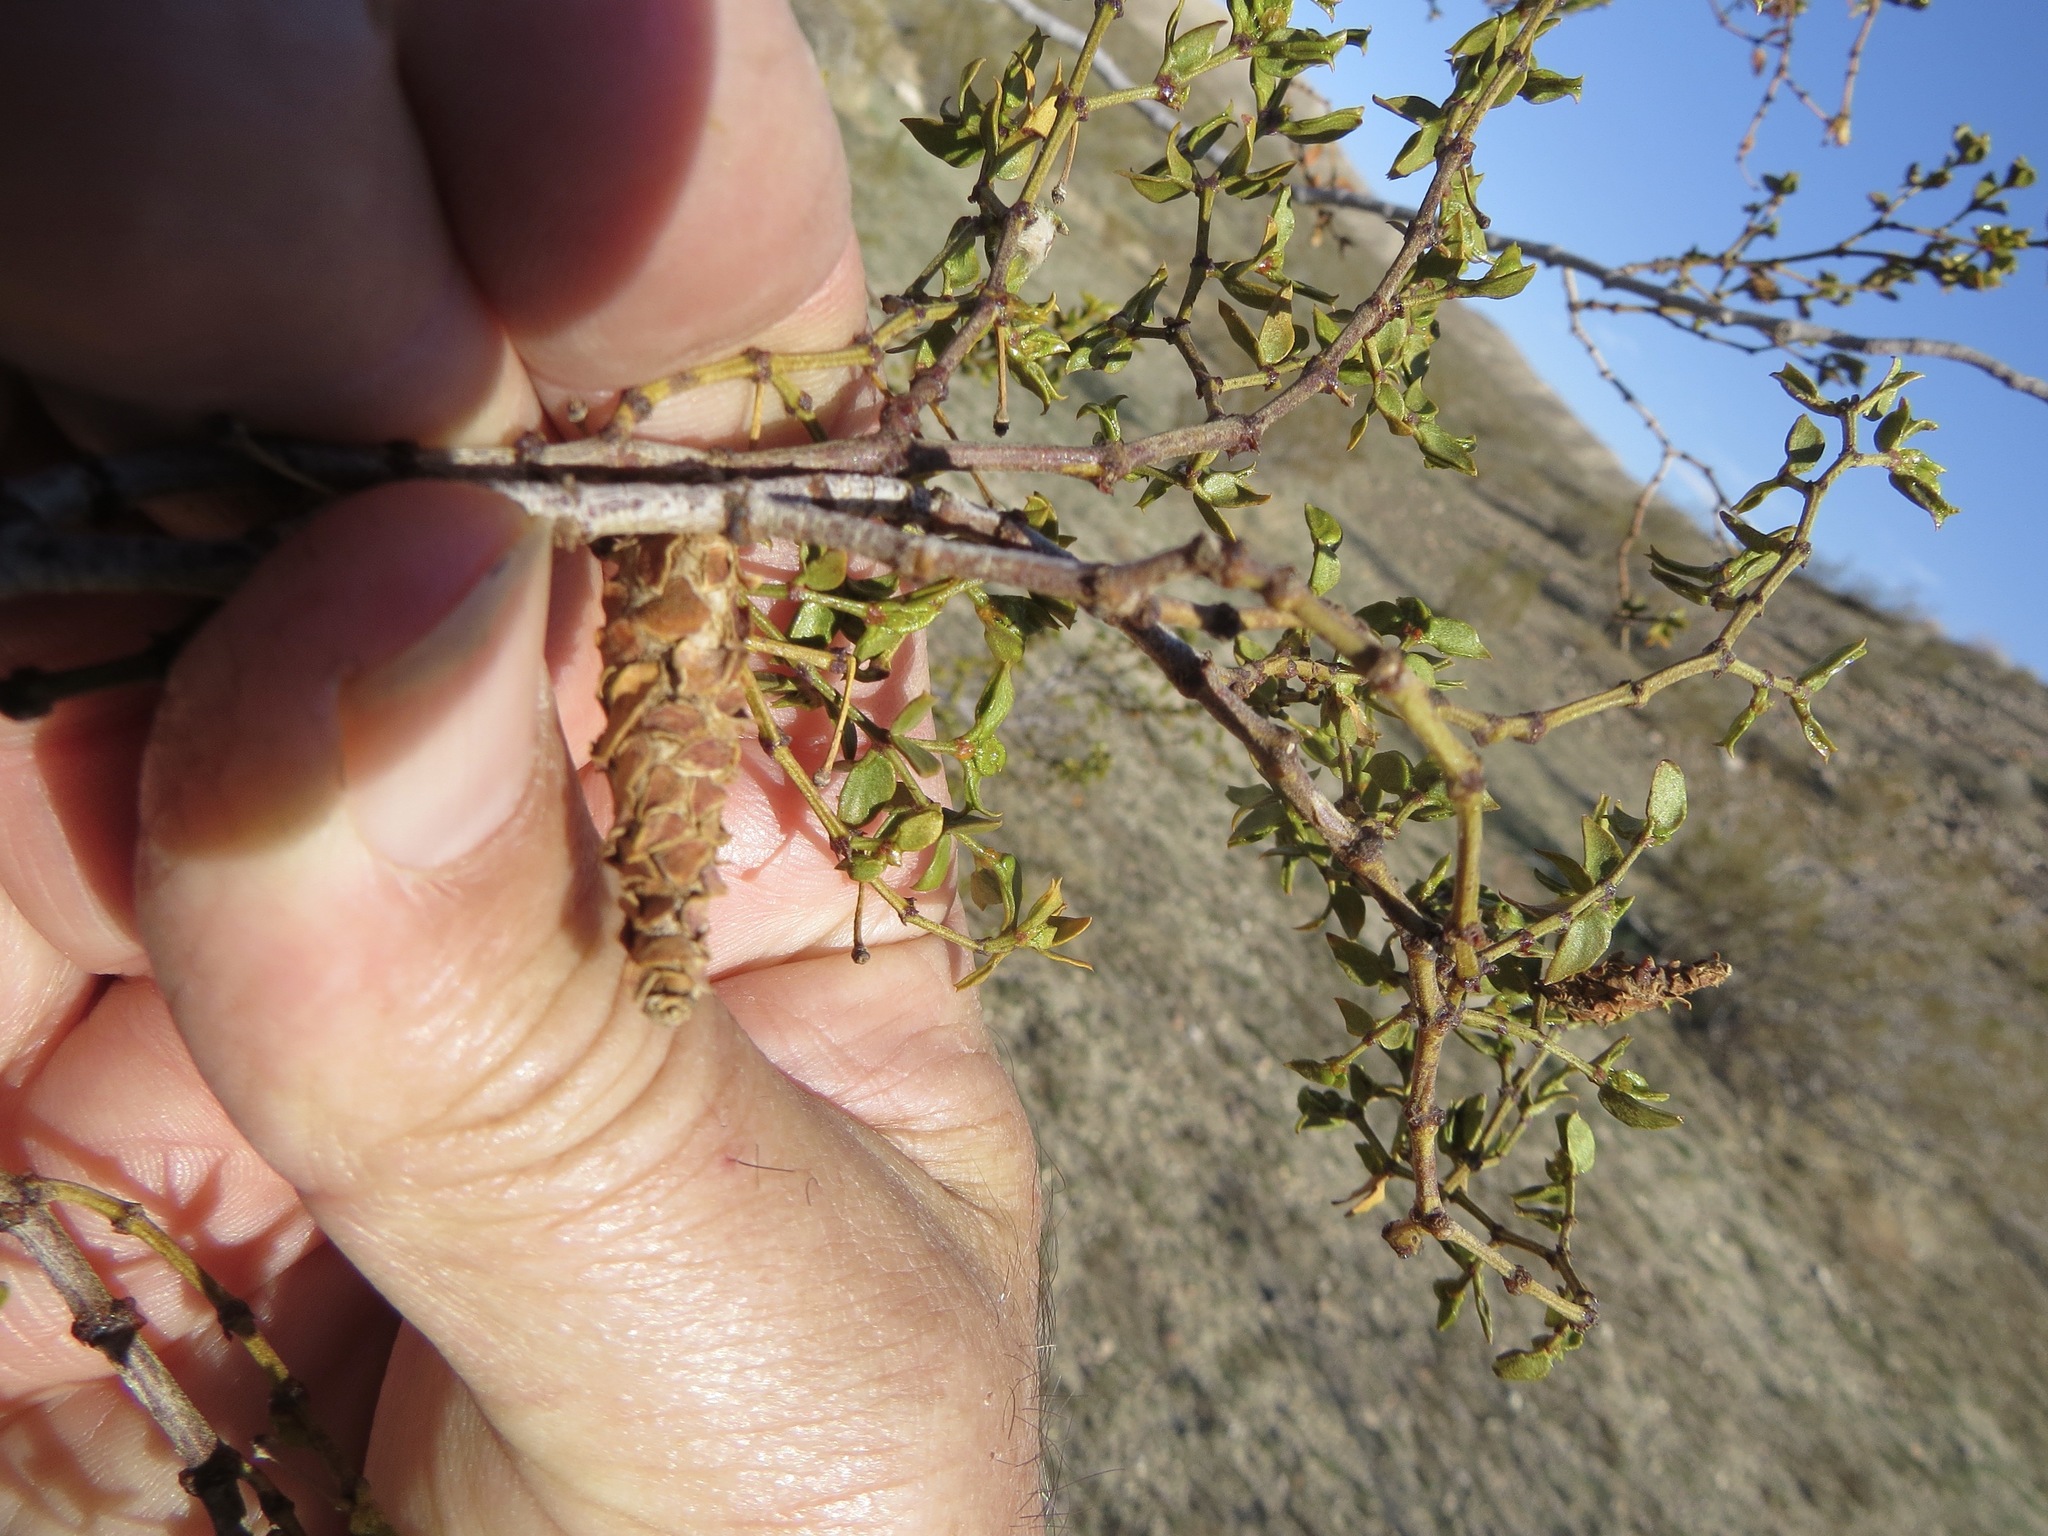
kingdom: Animalia
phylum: Arthropoda
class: Insecta
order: Lepidoptera
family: Psychidae
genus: Thyridopteryx
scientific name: Thyridopteryx meadii
